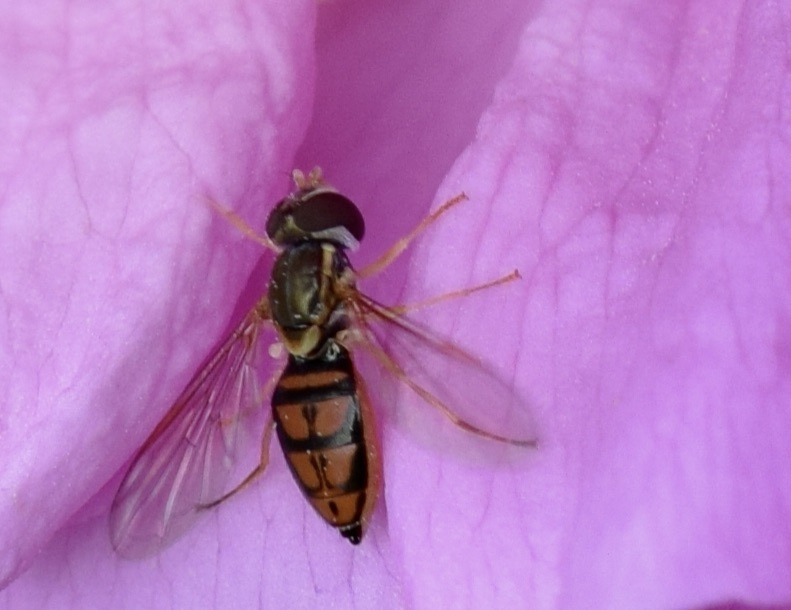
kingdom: Animalia
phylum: Arthropoda
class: Insecta
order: Diptera
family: Syrphidae
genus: Toxomerus
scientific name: Toxomerus marginatus
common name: Syrphid fly
